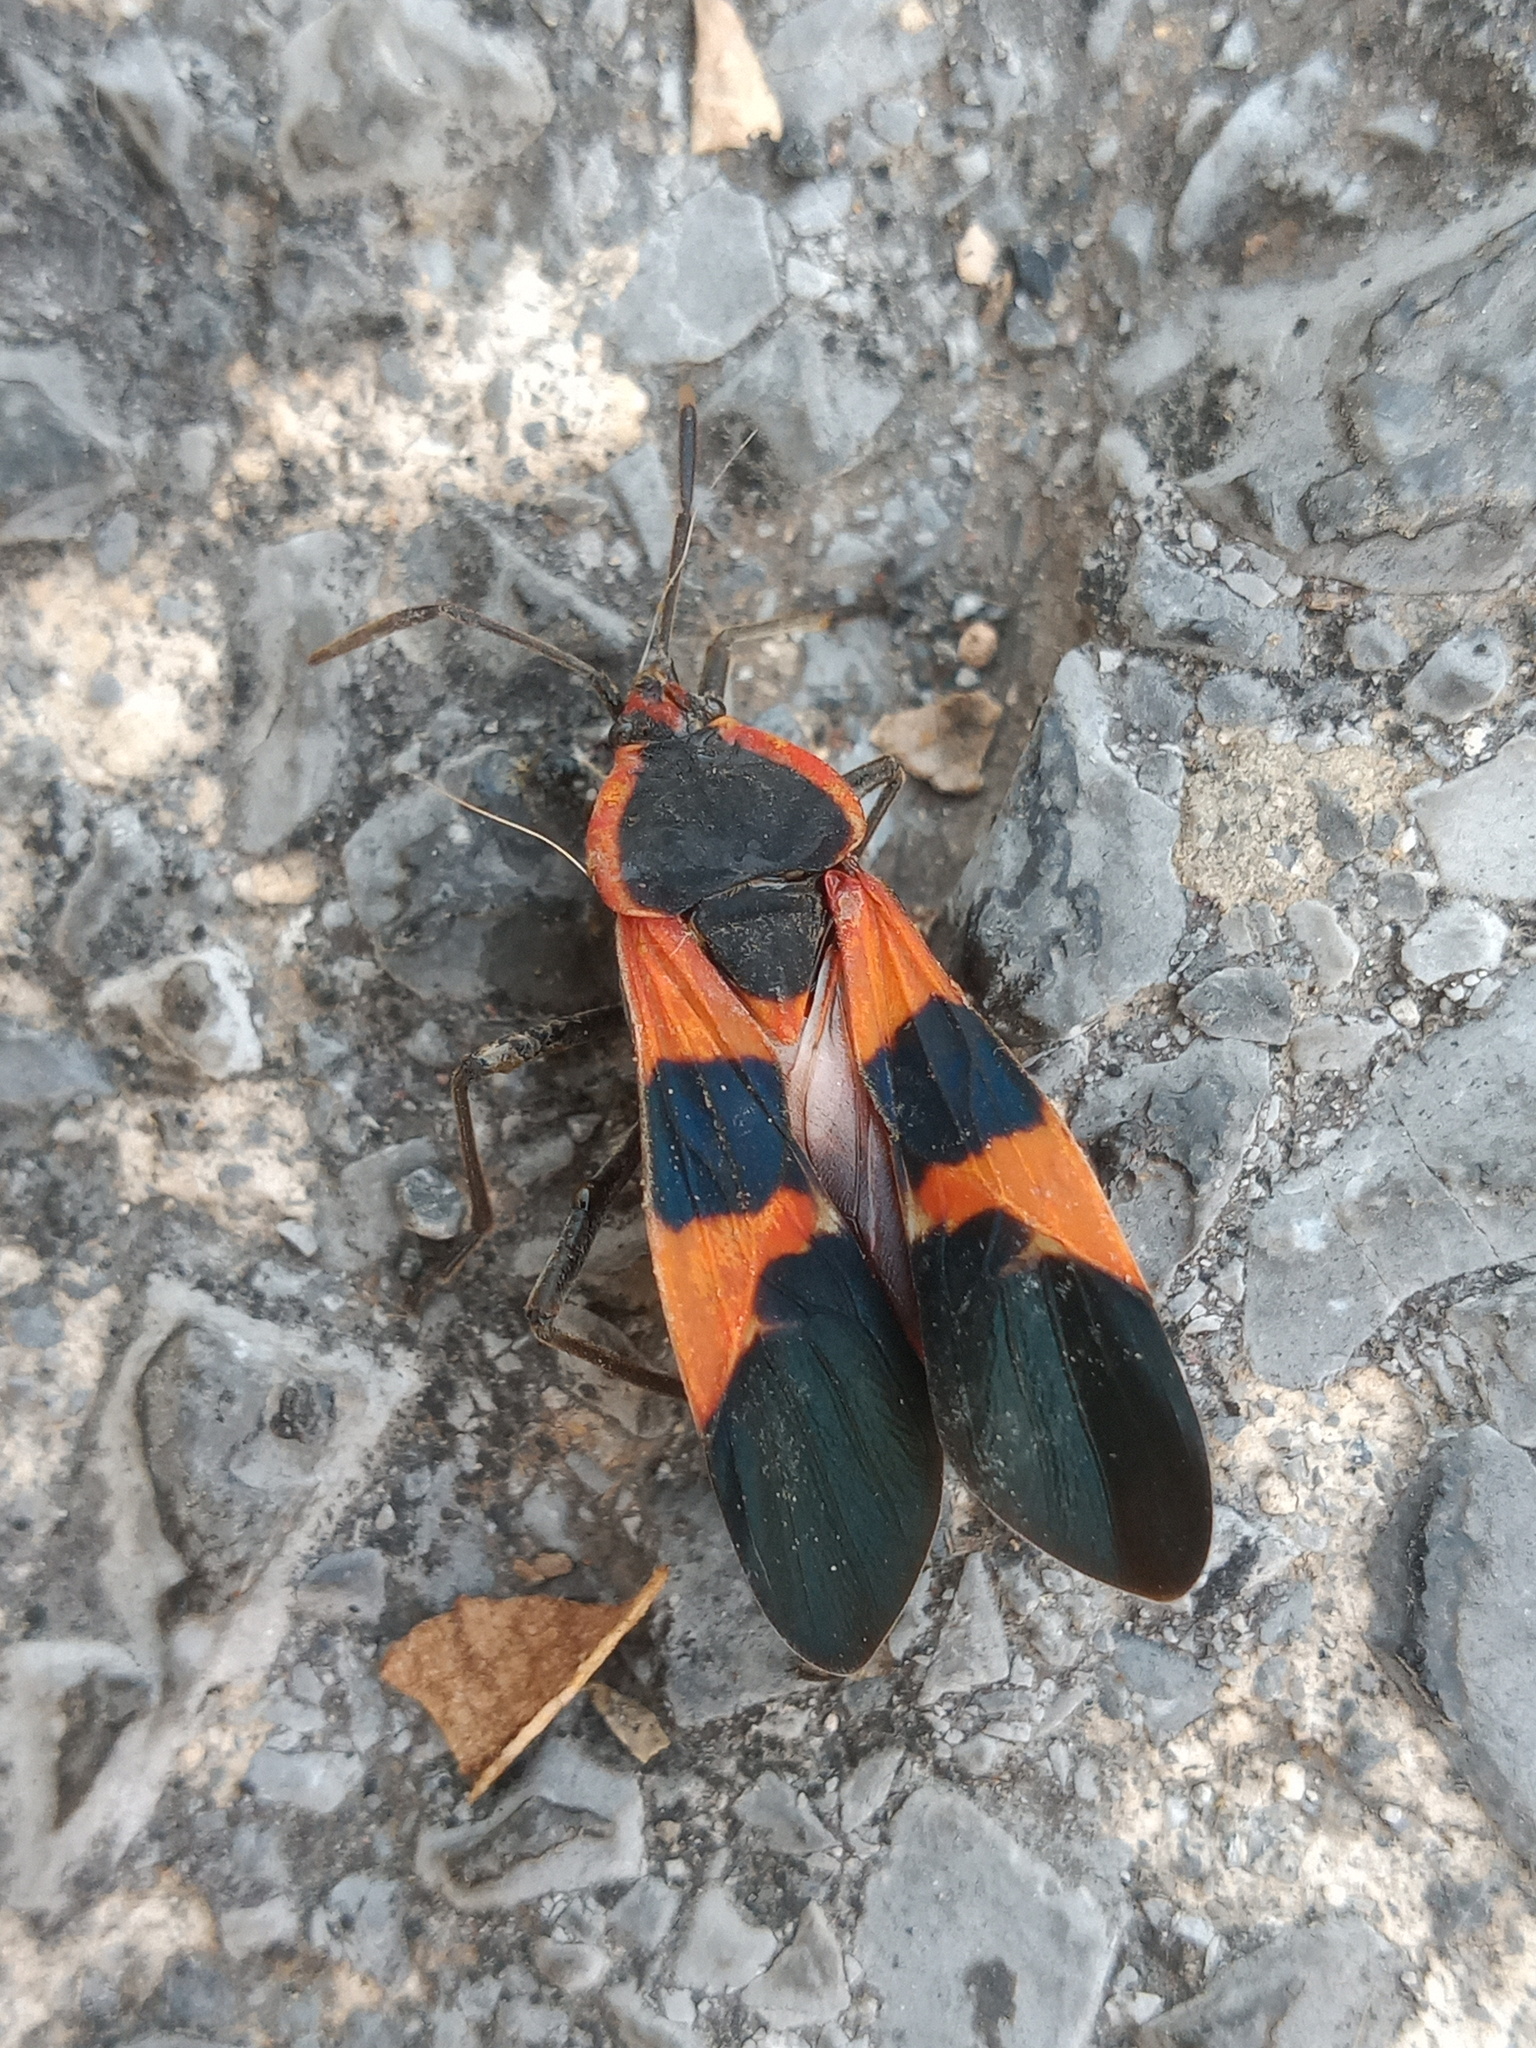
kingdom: Animalia
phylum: Arthropoda
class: Insecta
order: Hemiptera
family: Lygaeidae
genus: Oncopeltus
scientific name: Oncopeltus fasciatus
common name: Large milkweed bug
